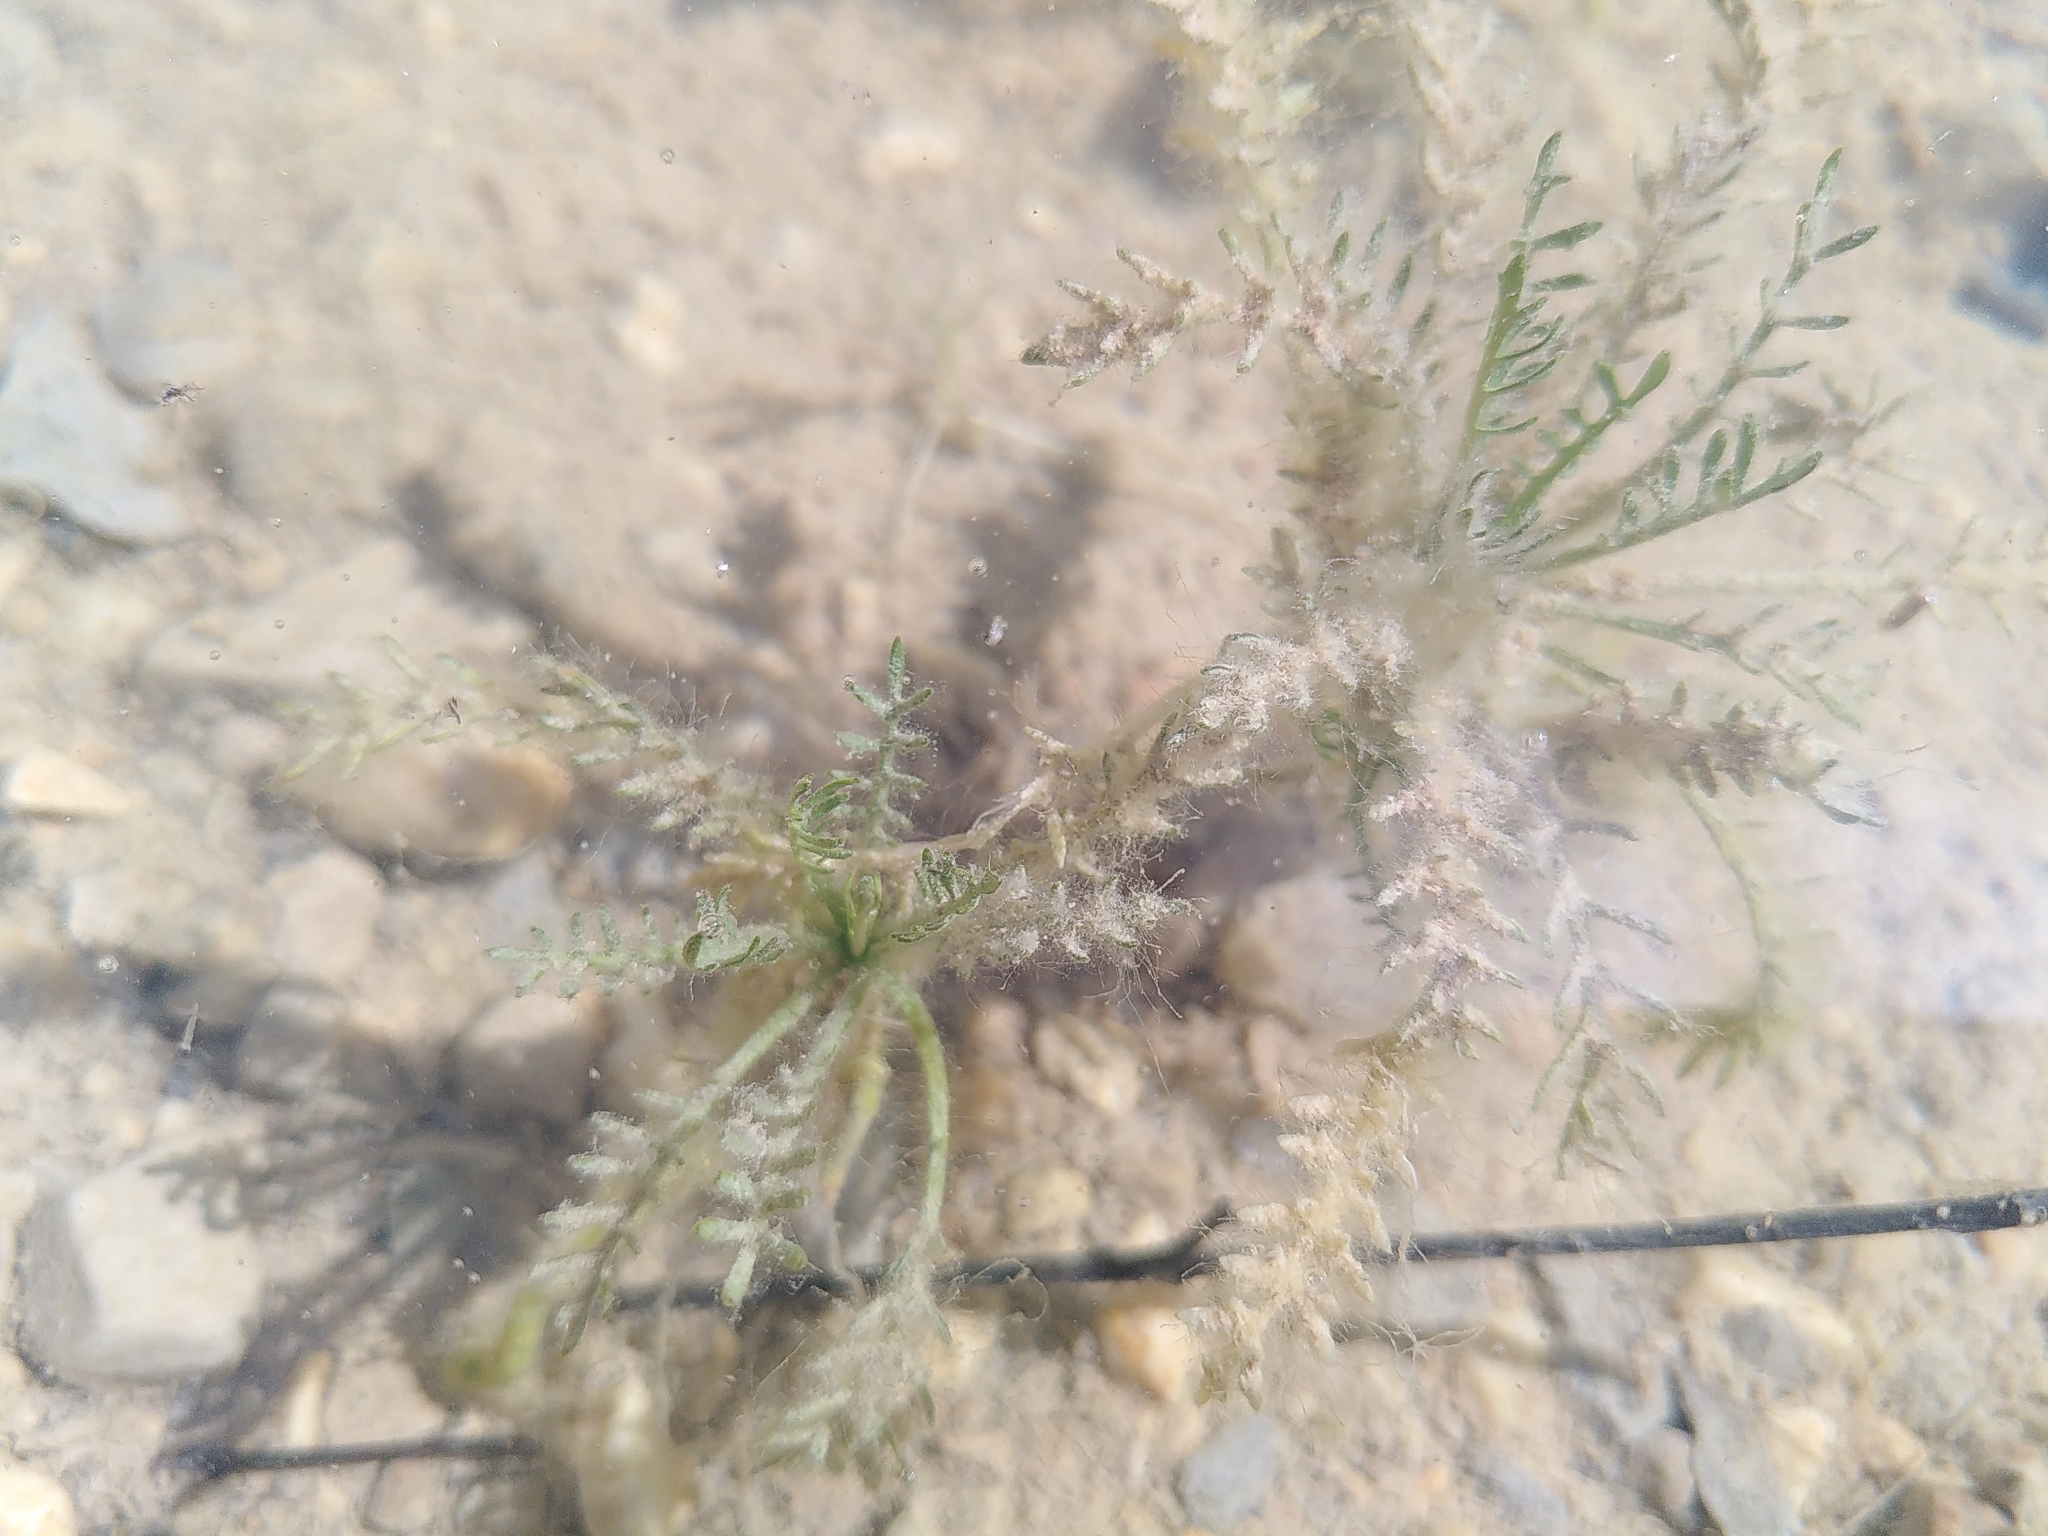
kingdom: Plantae
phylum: Tracheophyta
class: Magnoliopsida
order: Brassicales
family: Brassicaceae
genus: Sisymbrella
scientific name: Sisymbrella aspera
